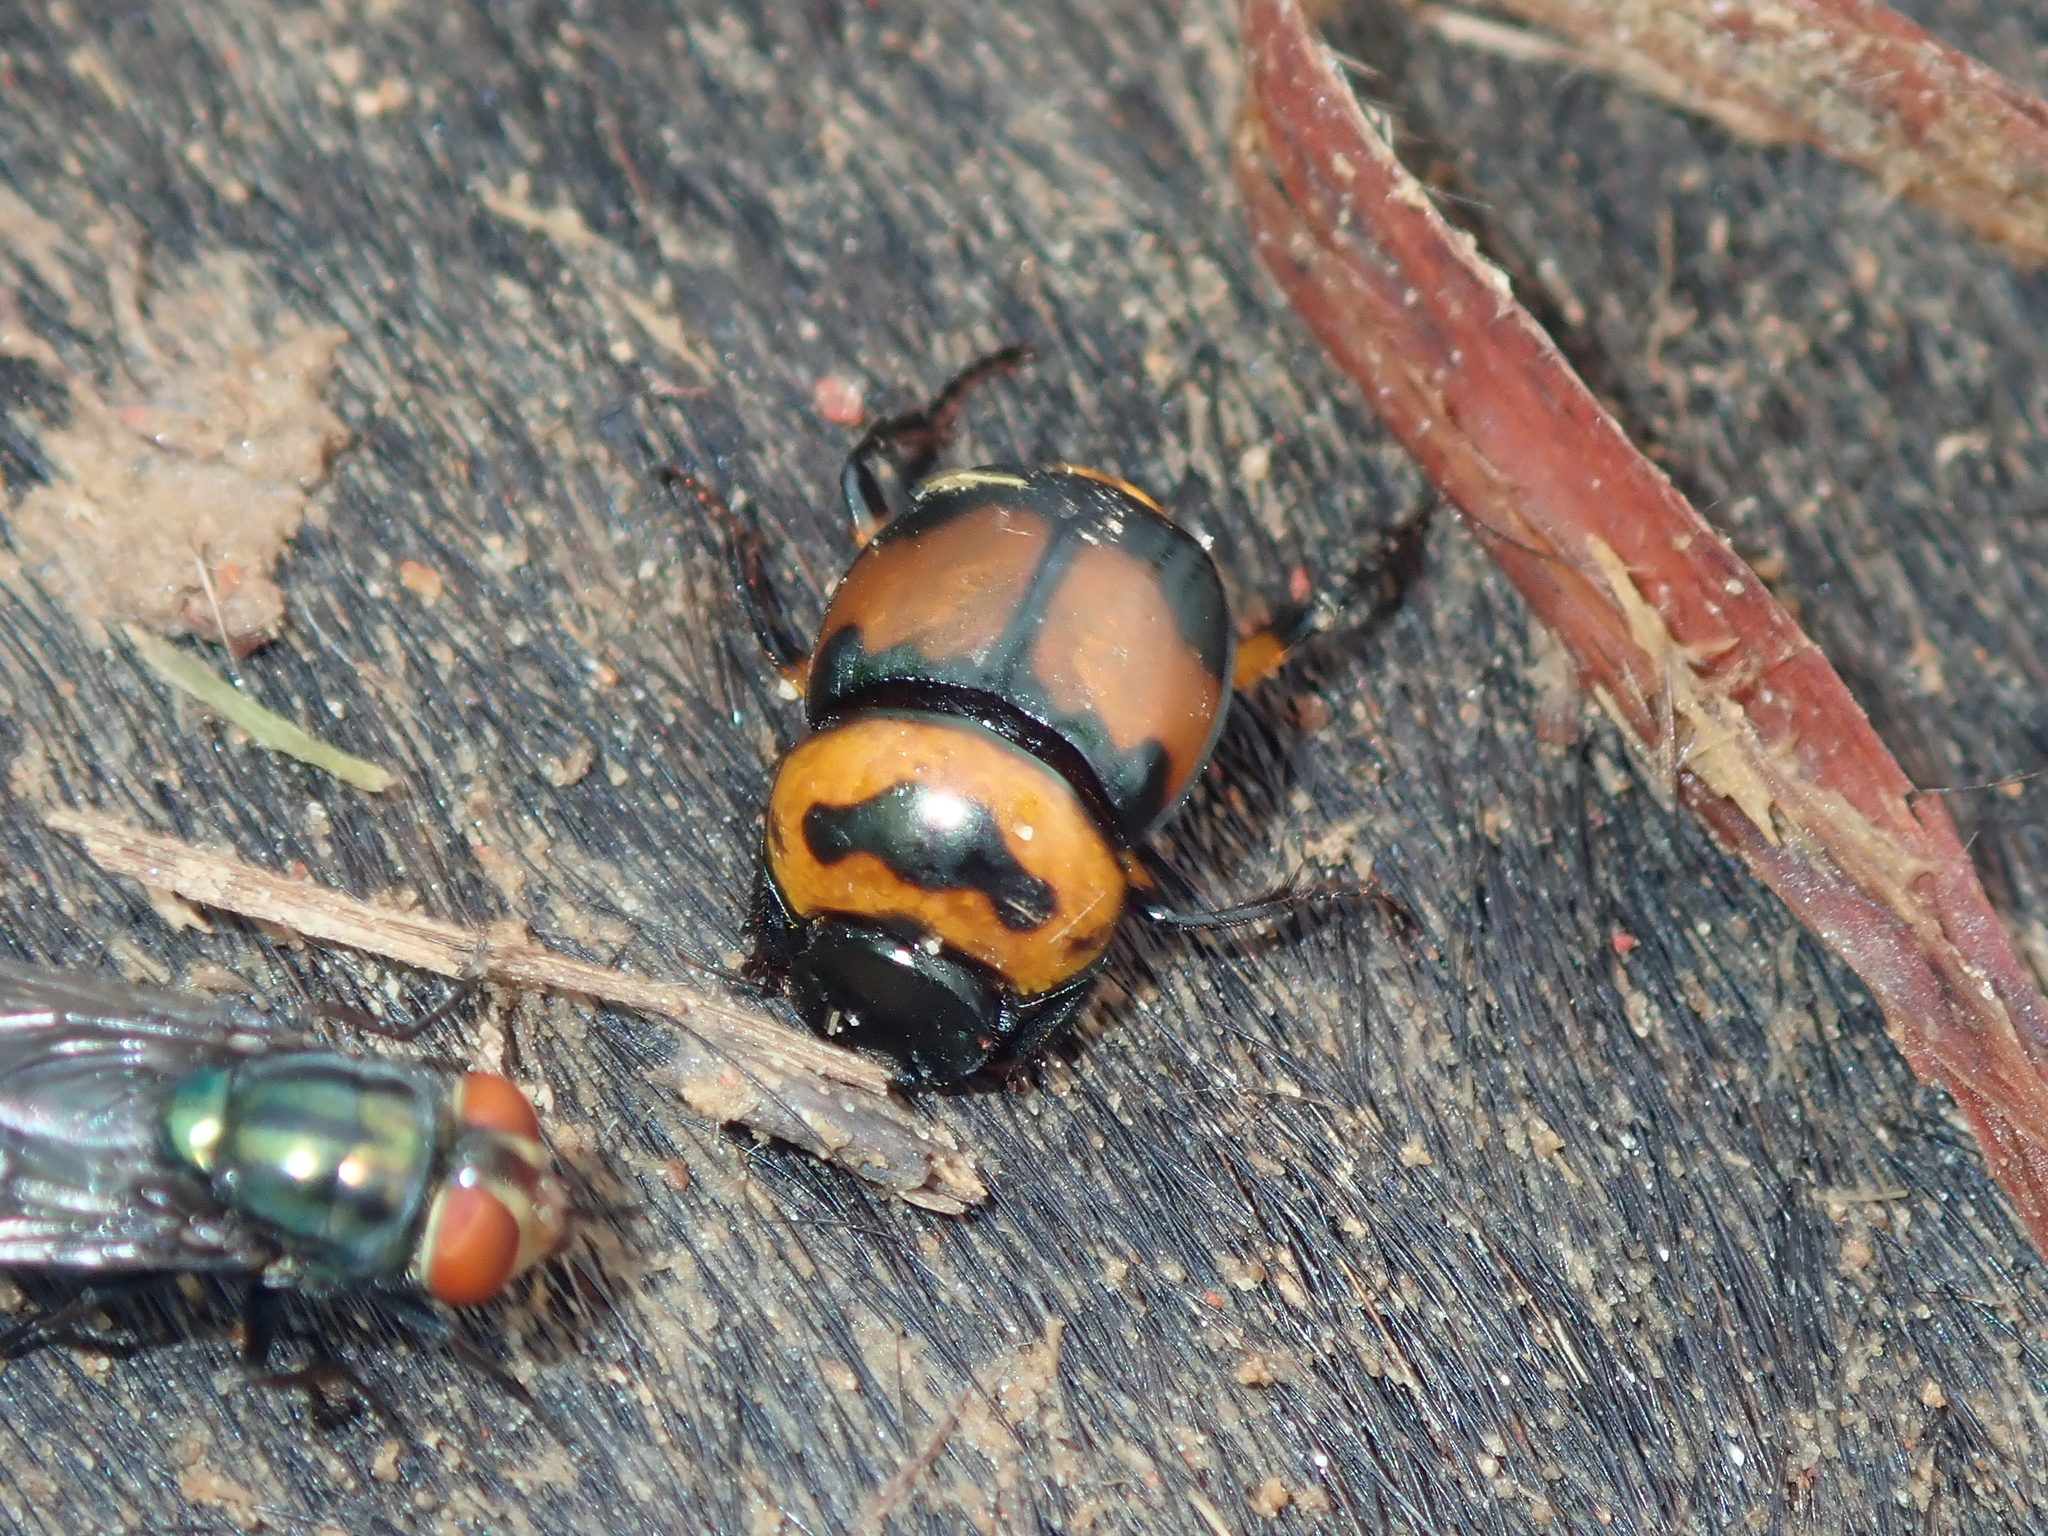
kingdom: Animalia
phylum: Arthropoda
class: Insecta
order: Coleoptera
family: Scarabaeidae
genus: Canthon
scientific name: Canthon histrio
